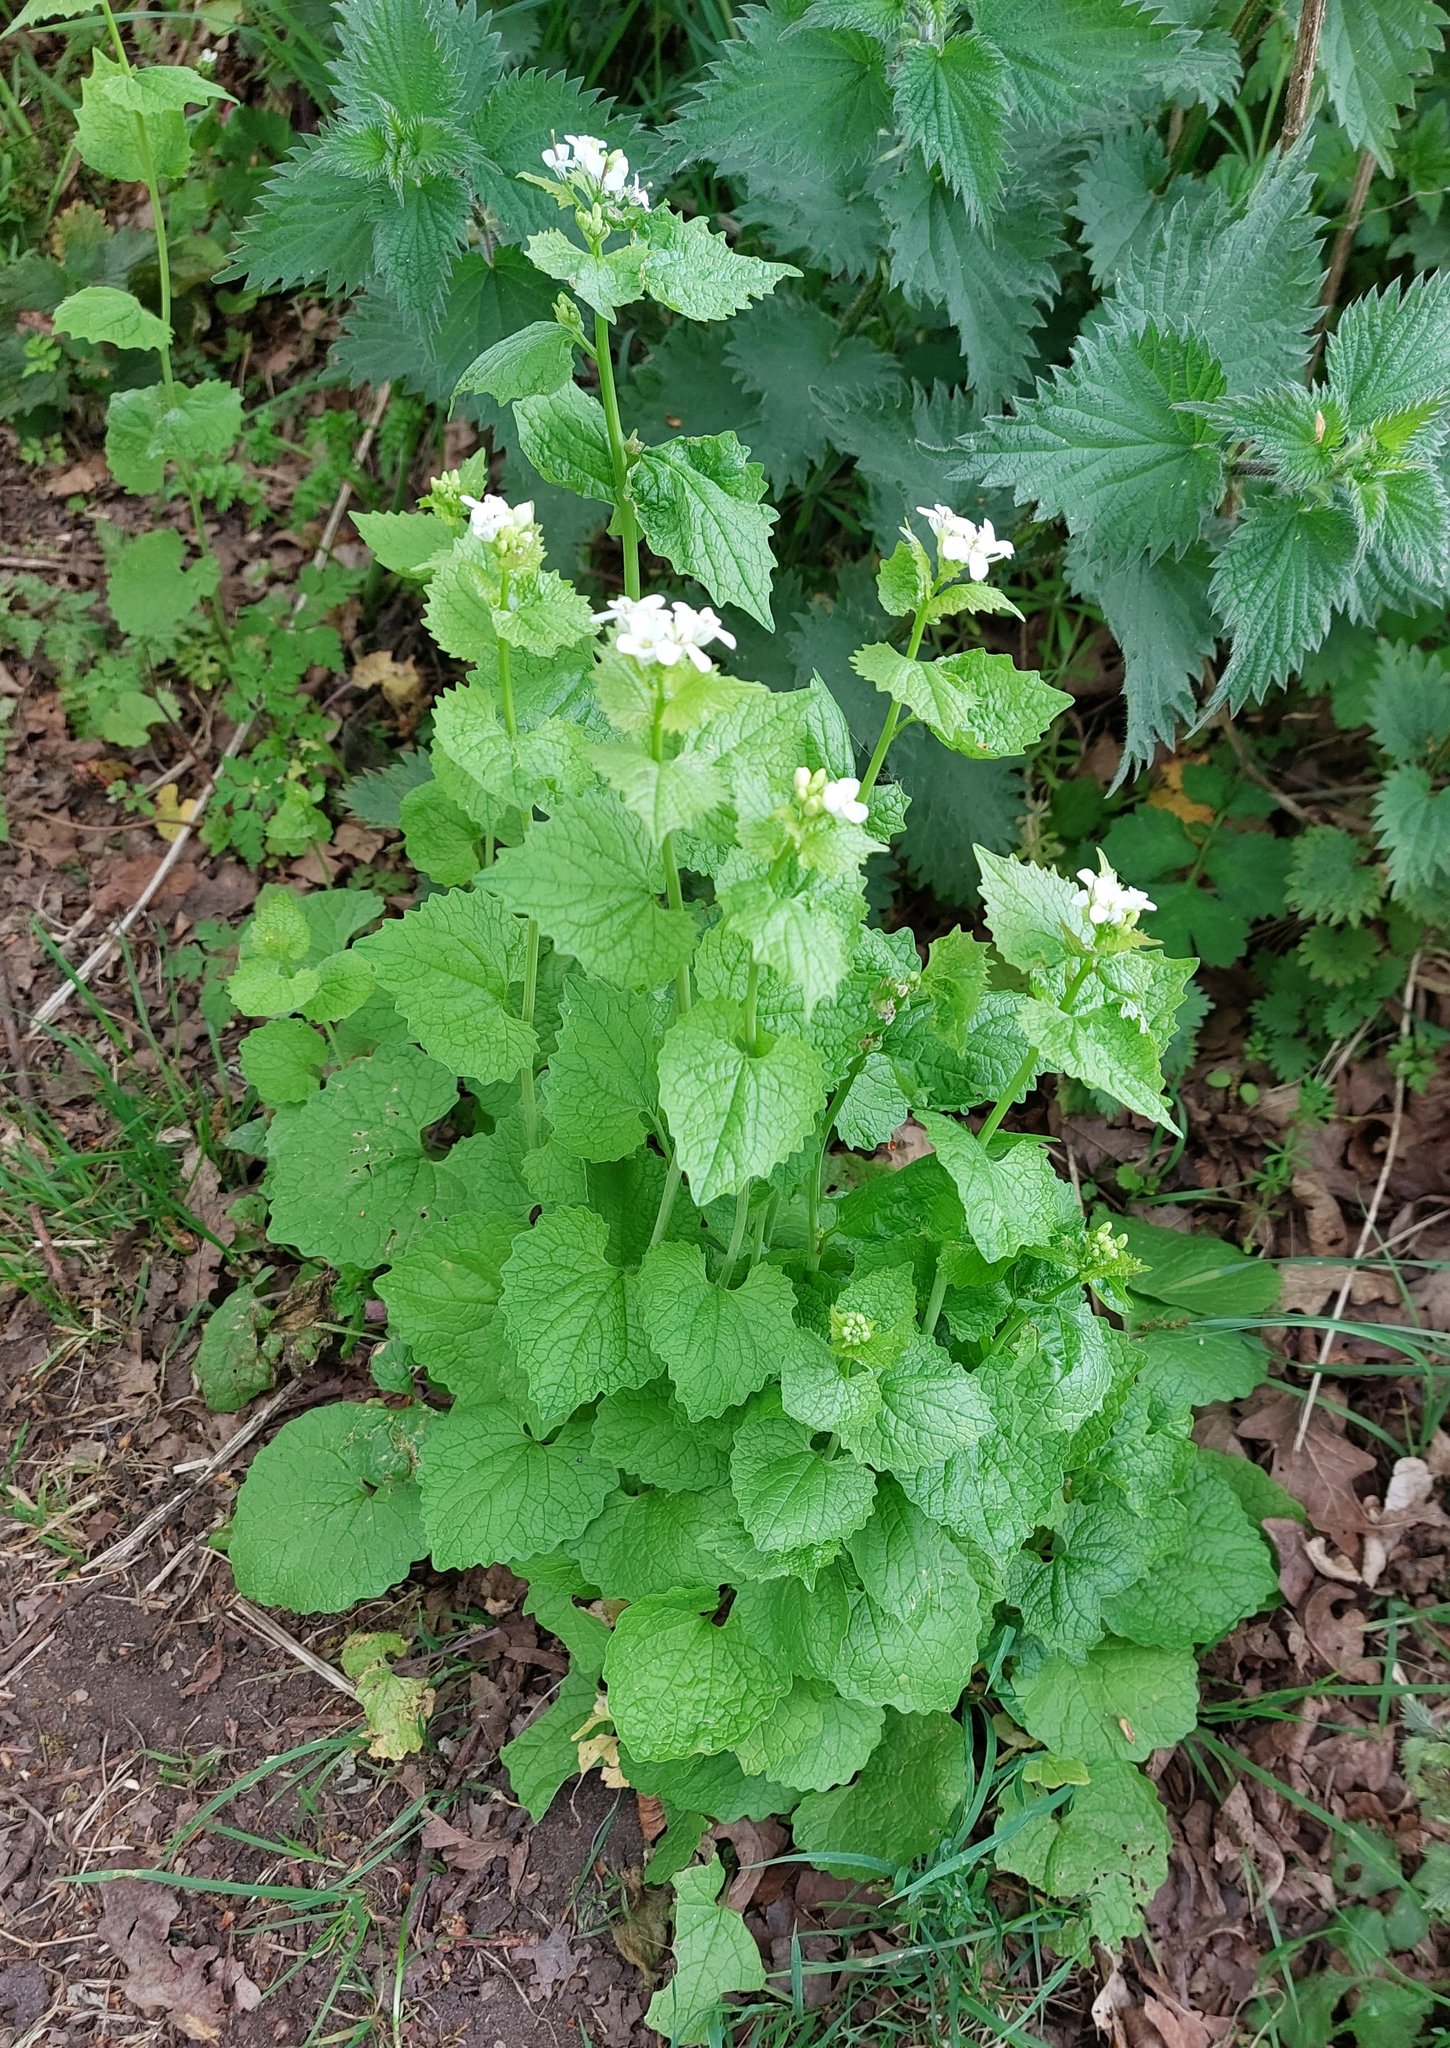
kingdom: Plantae
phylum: Tracheophyta
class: Magnoliopsida
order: Brassicales
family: Brassicaceae
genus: Alliaria
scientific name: Alliaria petiolata
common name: Garlic mustard
